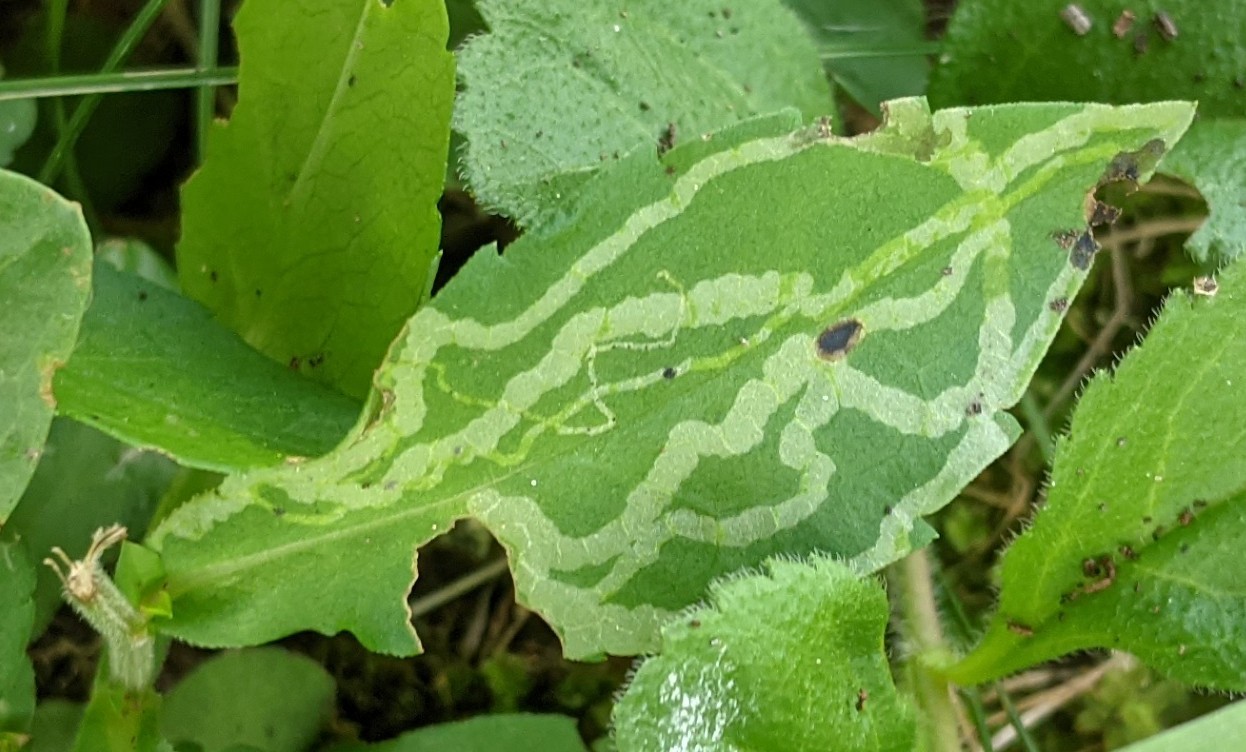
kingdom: Animalia
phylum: Arthropoda
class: Insecta
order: Diptera
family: Agromyzidae
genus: Ophiomyia
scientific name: Ophiomyia parda
